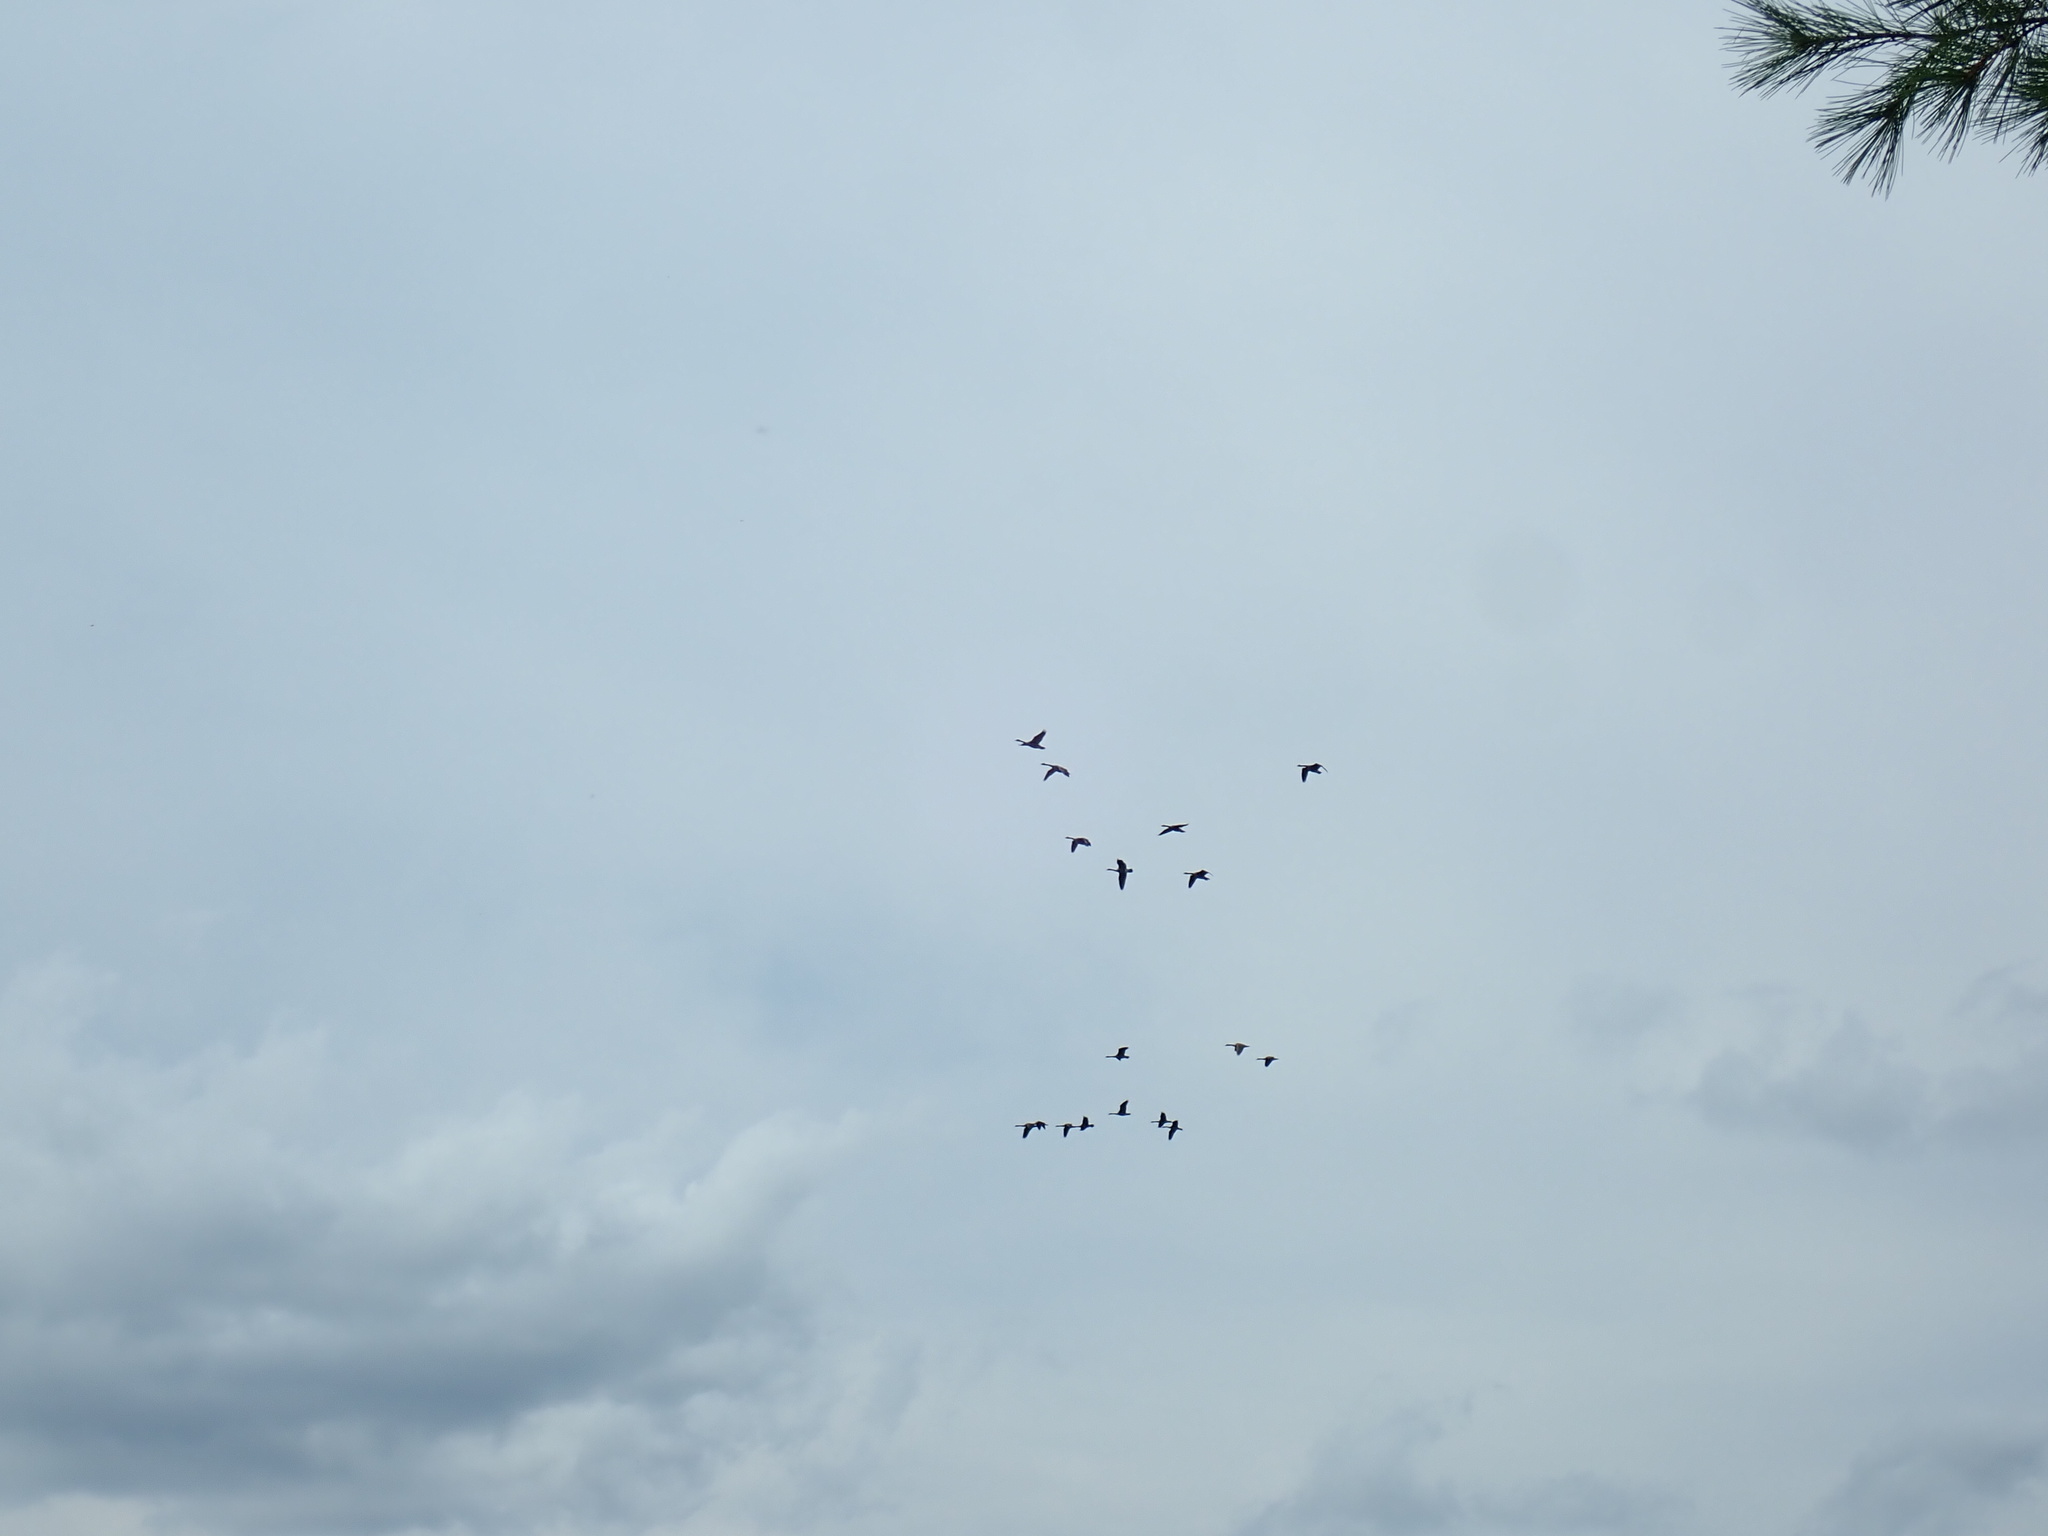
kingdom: Animalia
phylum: Chordata
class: Aves
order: Anseriformes
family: Anatidae
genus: Branta
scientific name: Branta canadensis
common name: Canada goose
